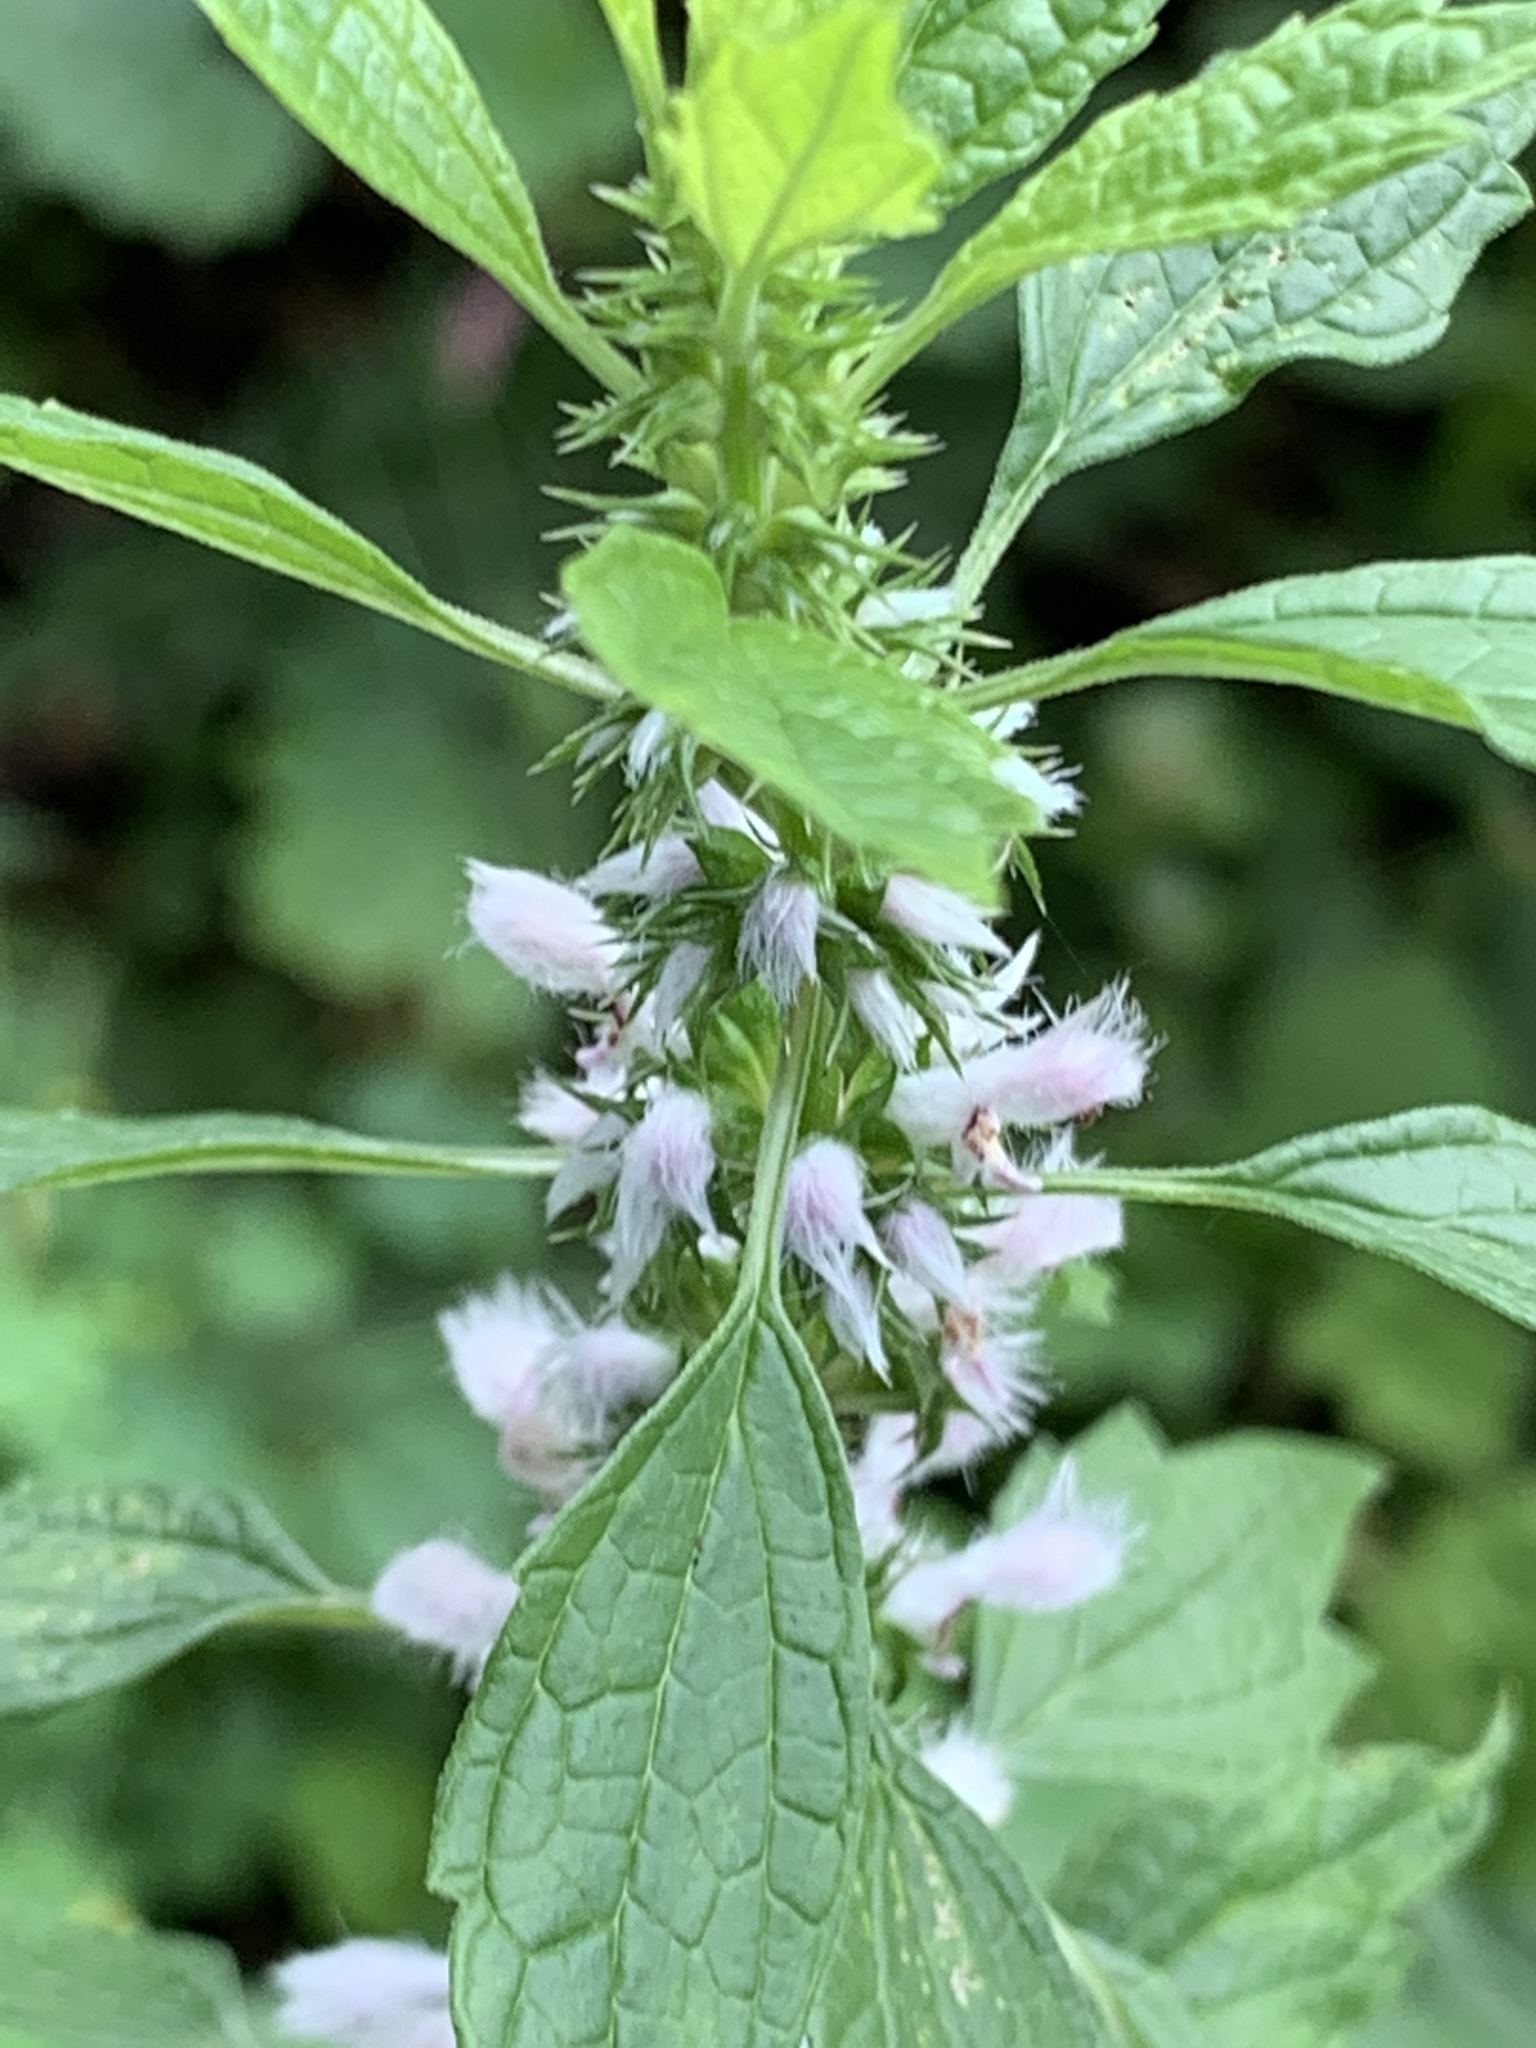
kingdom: Plantae
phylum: Tracheophyta
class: Magnoliopsida
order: Lamiales
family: Lamiaceae
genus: Leonurus
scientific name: Leonurus cardiaca
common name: Motherwort
